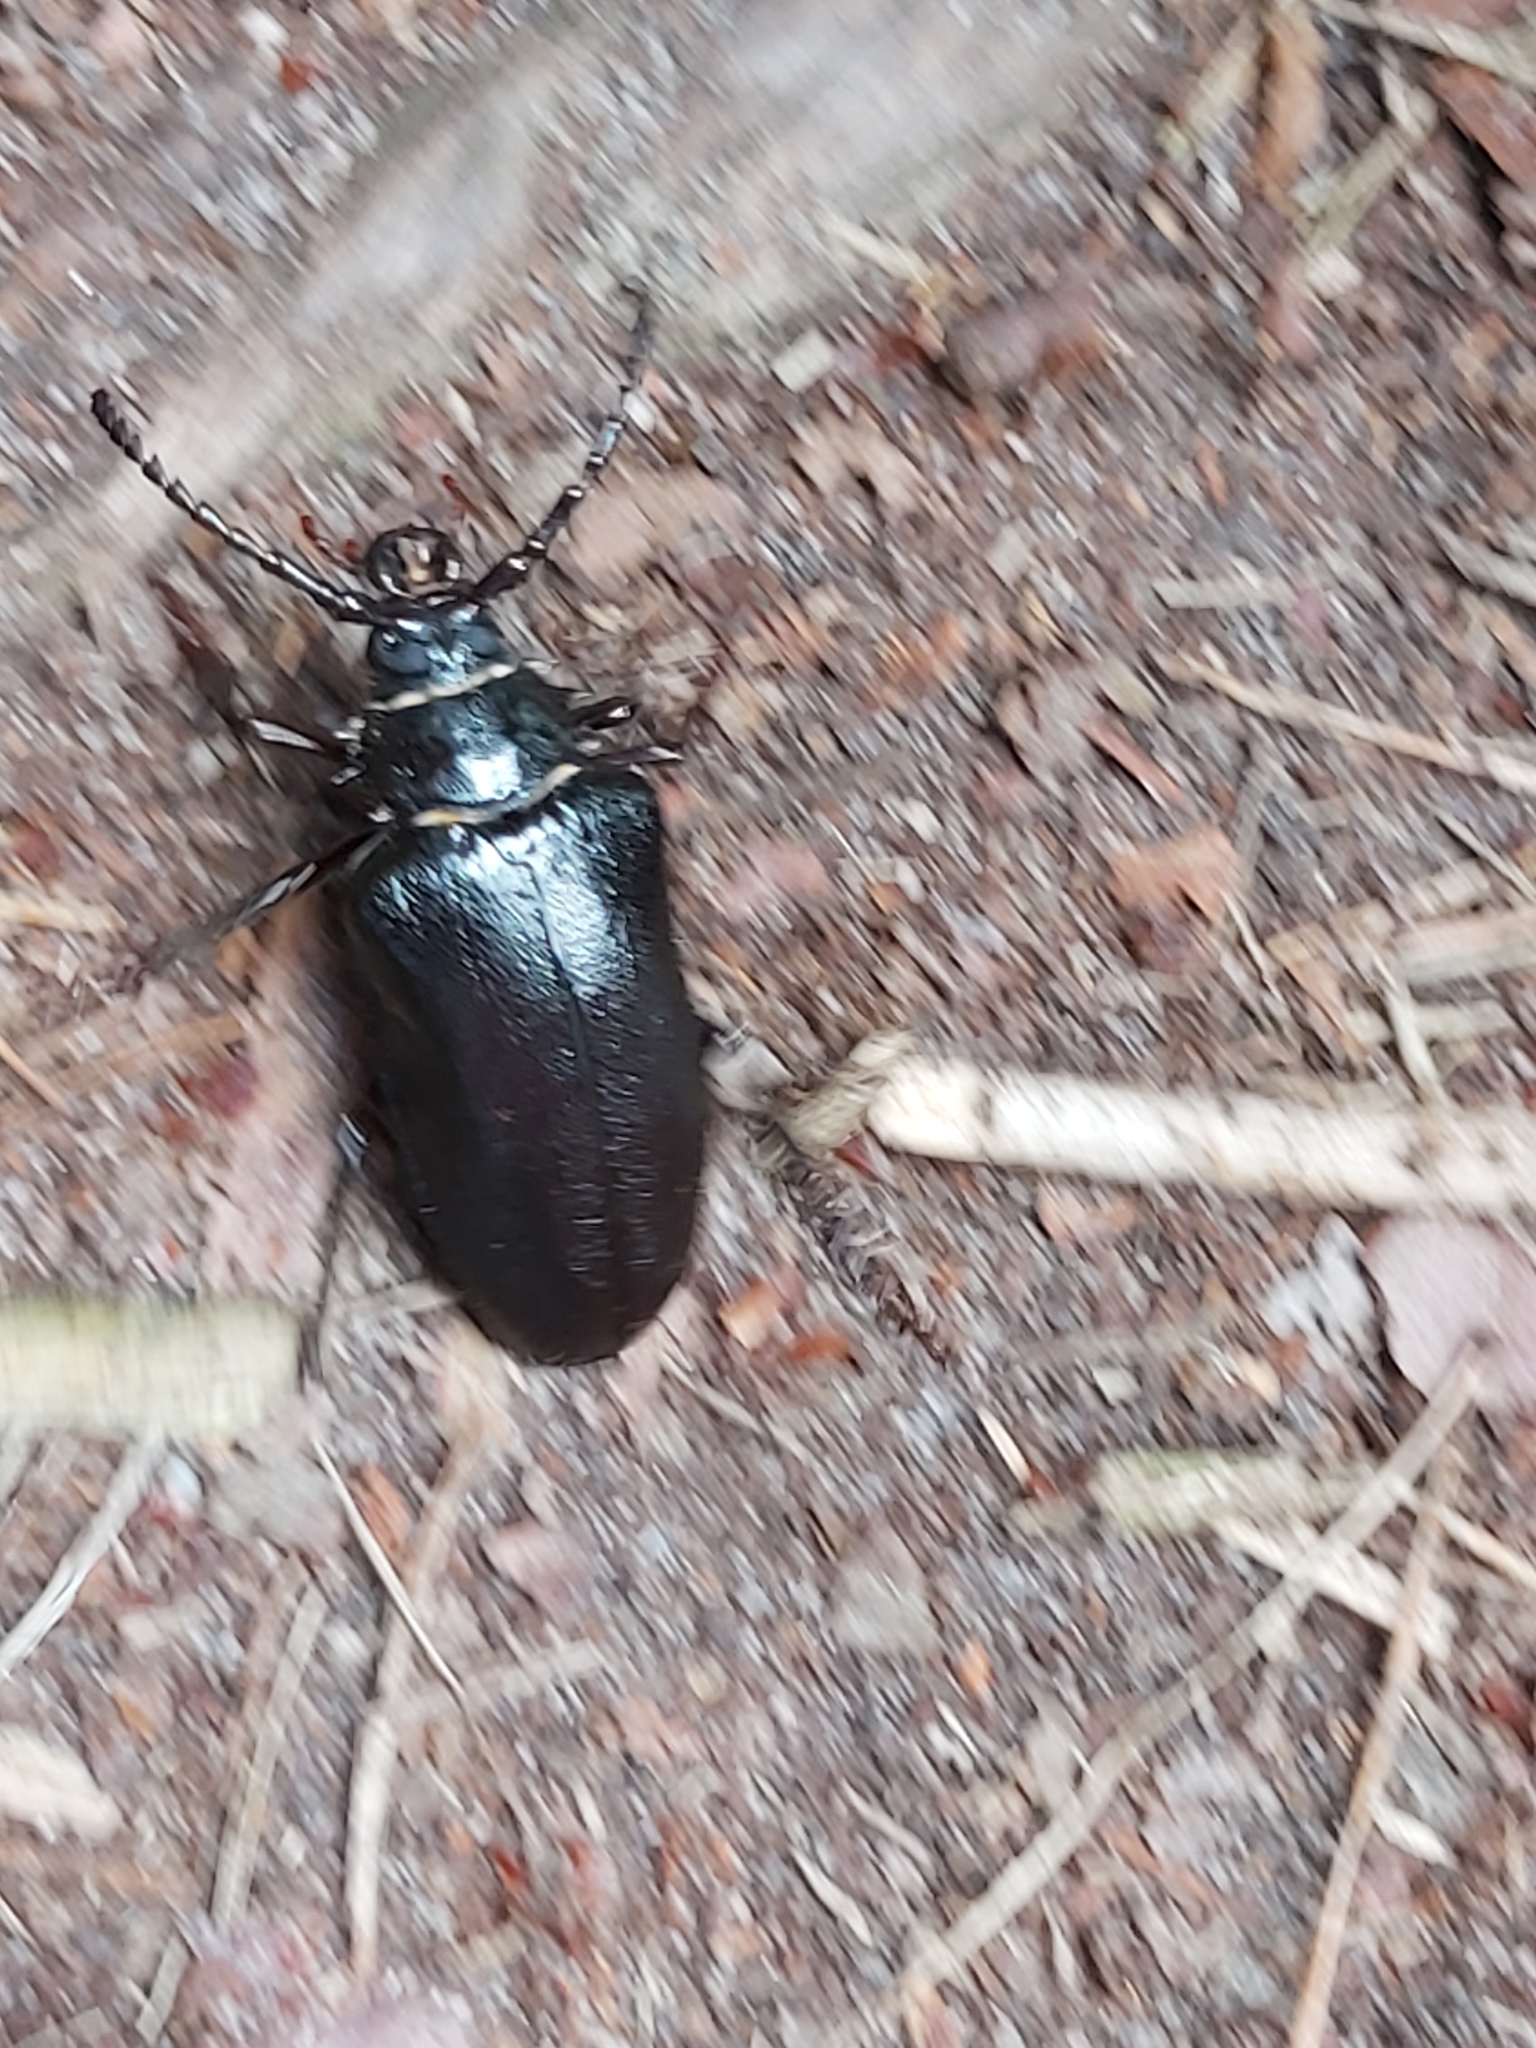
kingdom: Animalia
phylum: Arthropoda
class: Insecta
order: Coleoptera
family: Cerambycidae
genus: Prionus
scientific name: Prionus coriarius
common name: Tanner beetle
